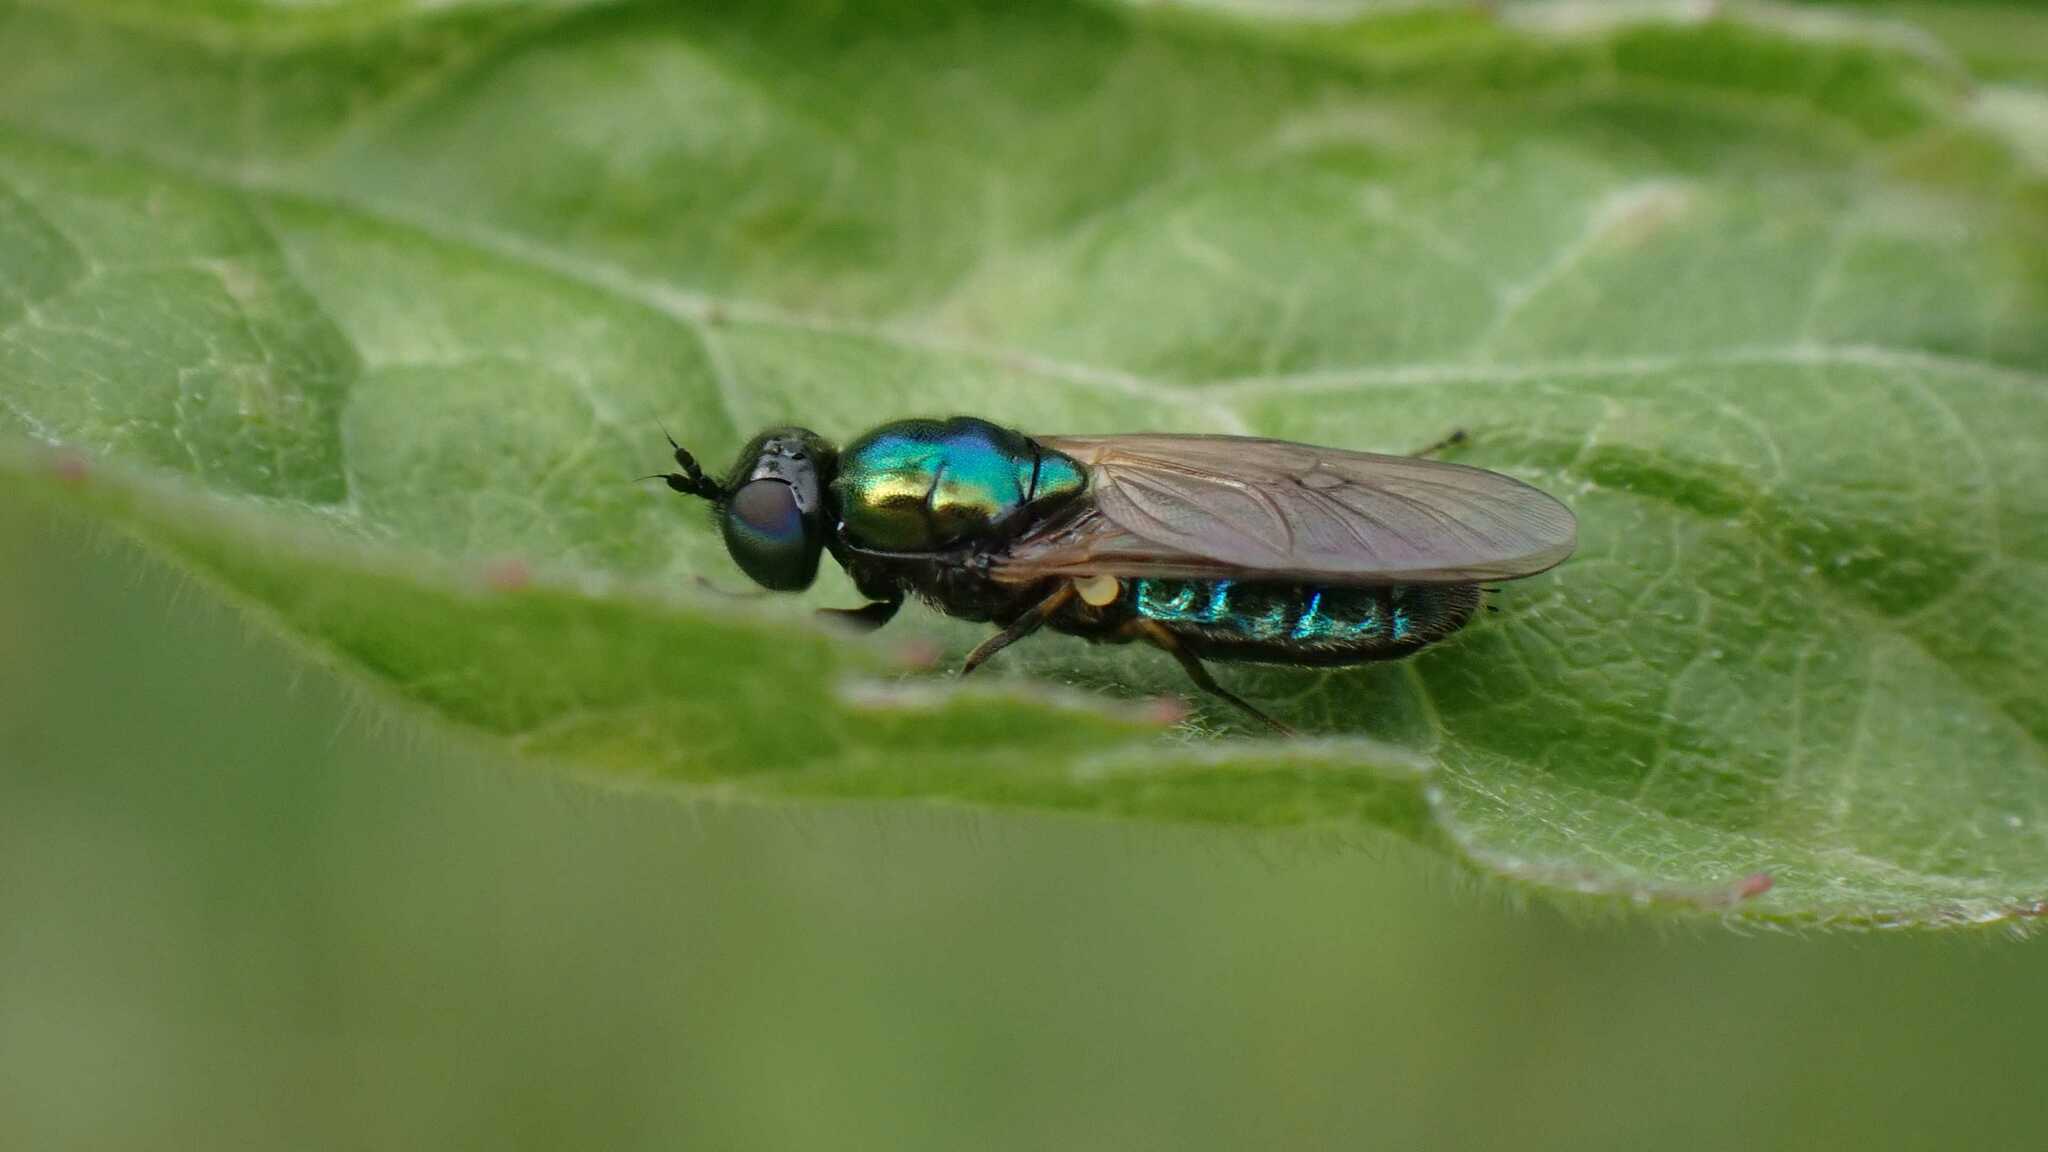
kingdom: Animalia
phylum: Arthropoda
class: Insecta
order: Diptera
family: Stratiomyidae
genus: Chloromyia
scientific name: Chloromyia formosa
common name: Soldier fly
